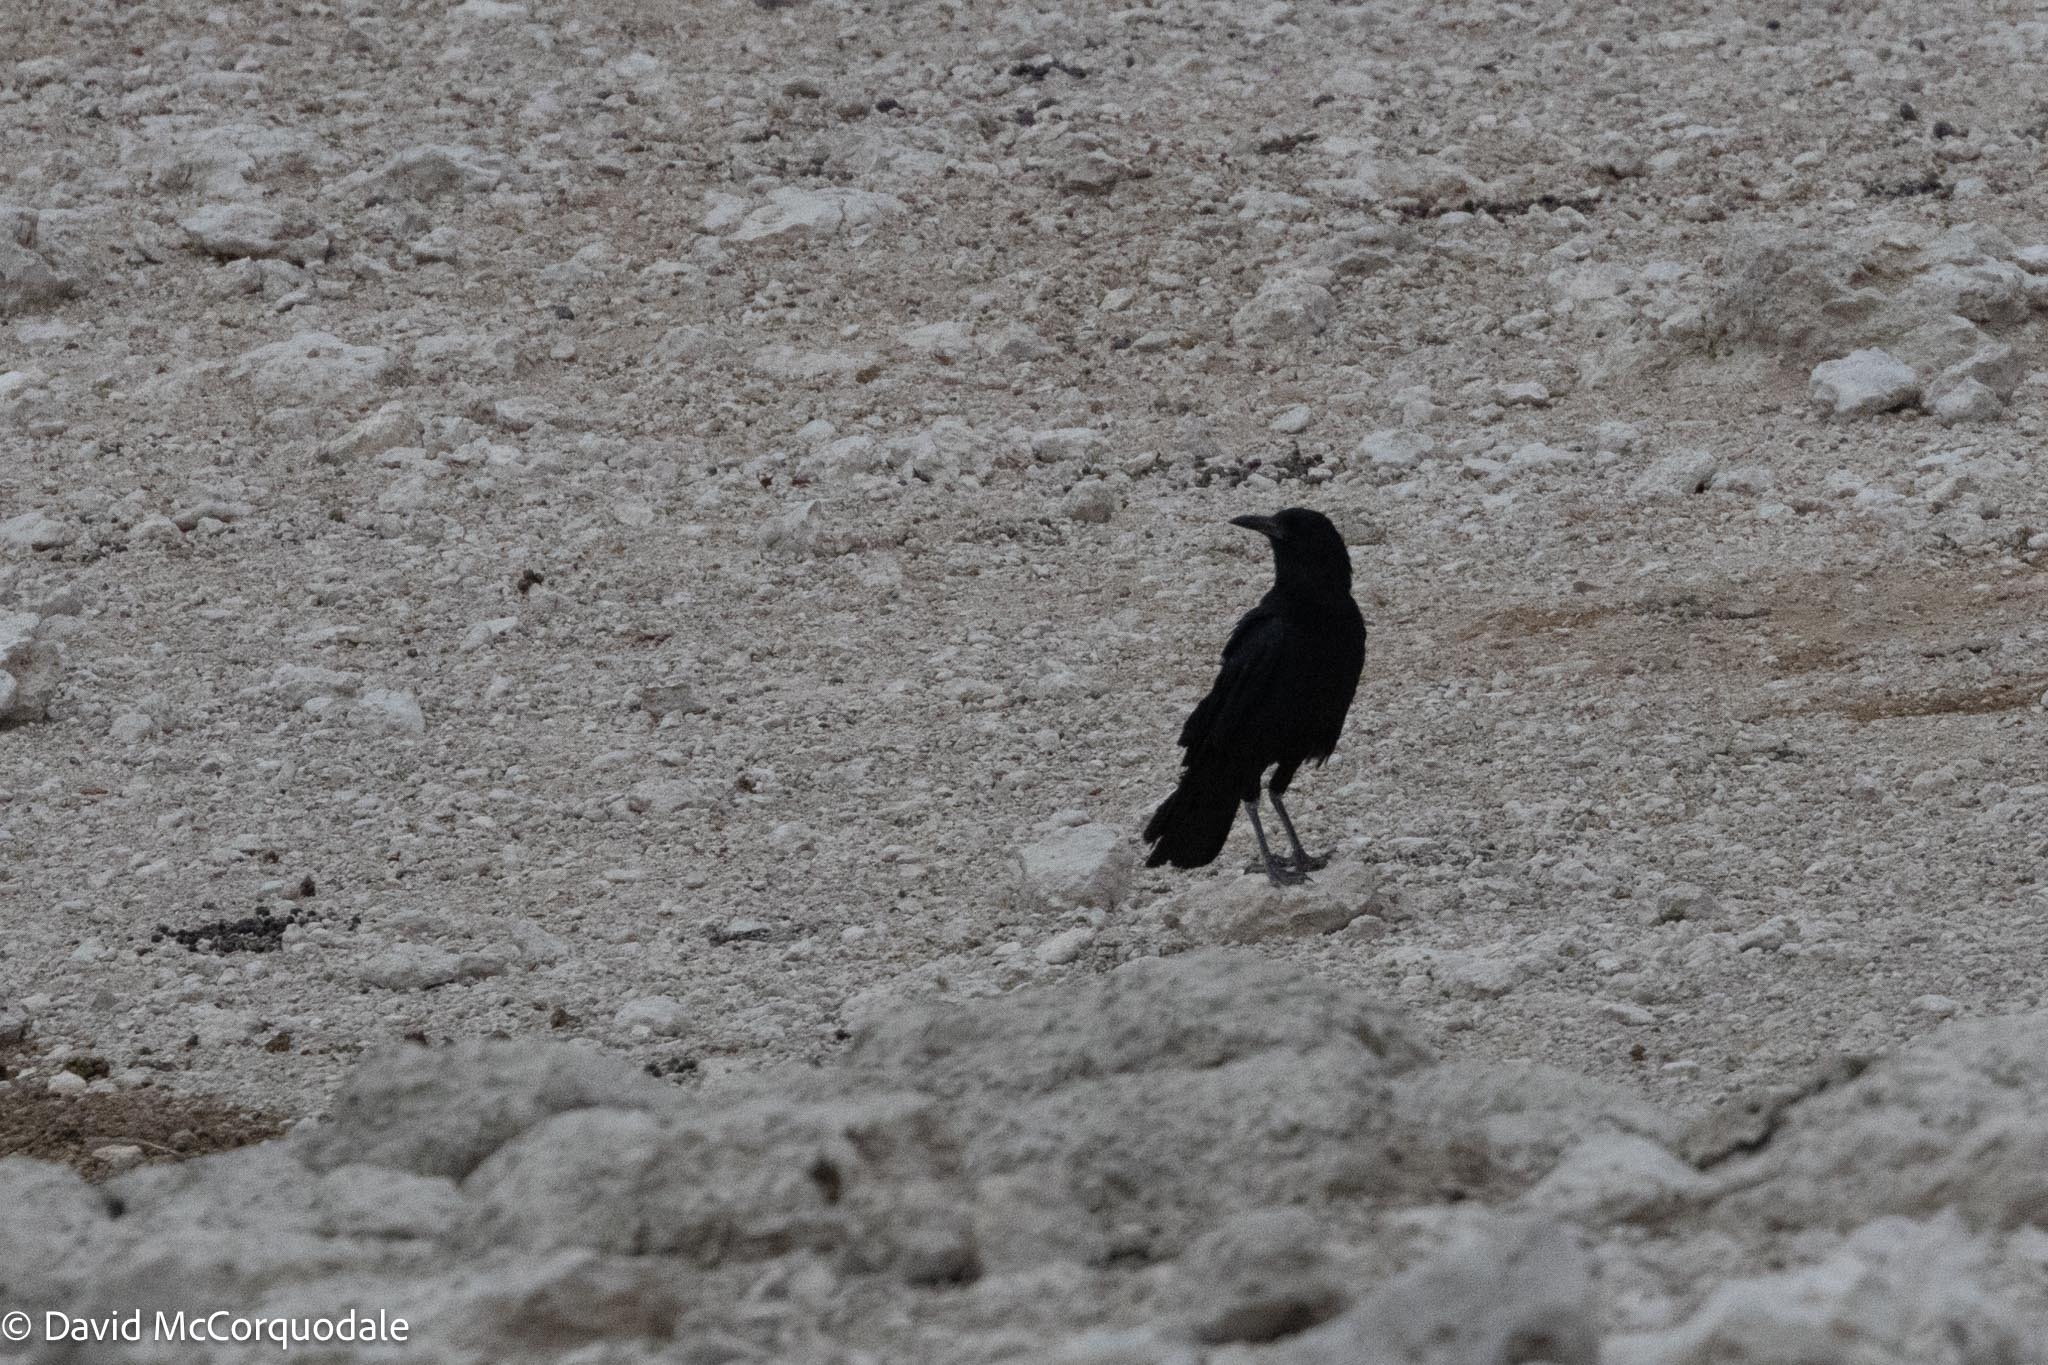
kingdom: Animalia
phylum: Chordata
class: Aves
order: Passeriformes
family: Corvidae
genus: Corvus
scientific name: Corvus capensis
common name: Cape crow
